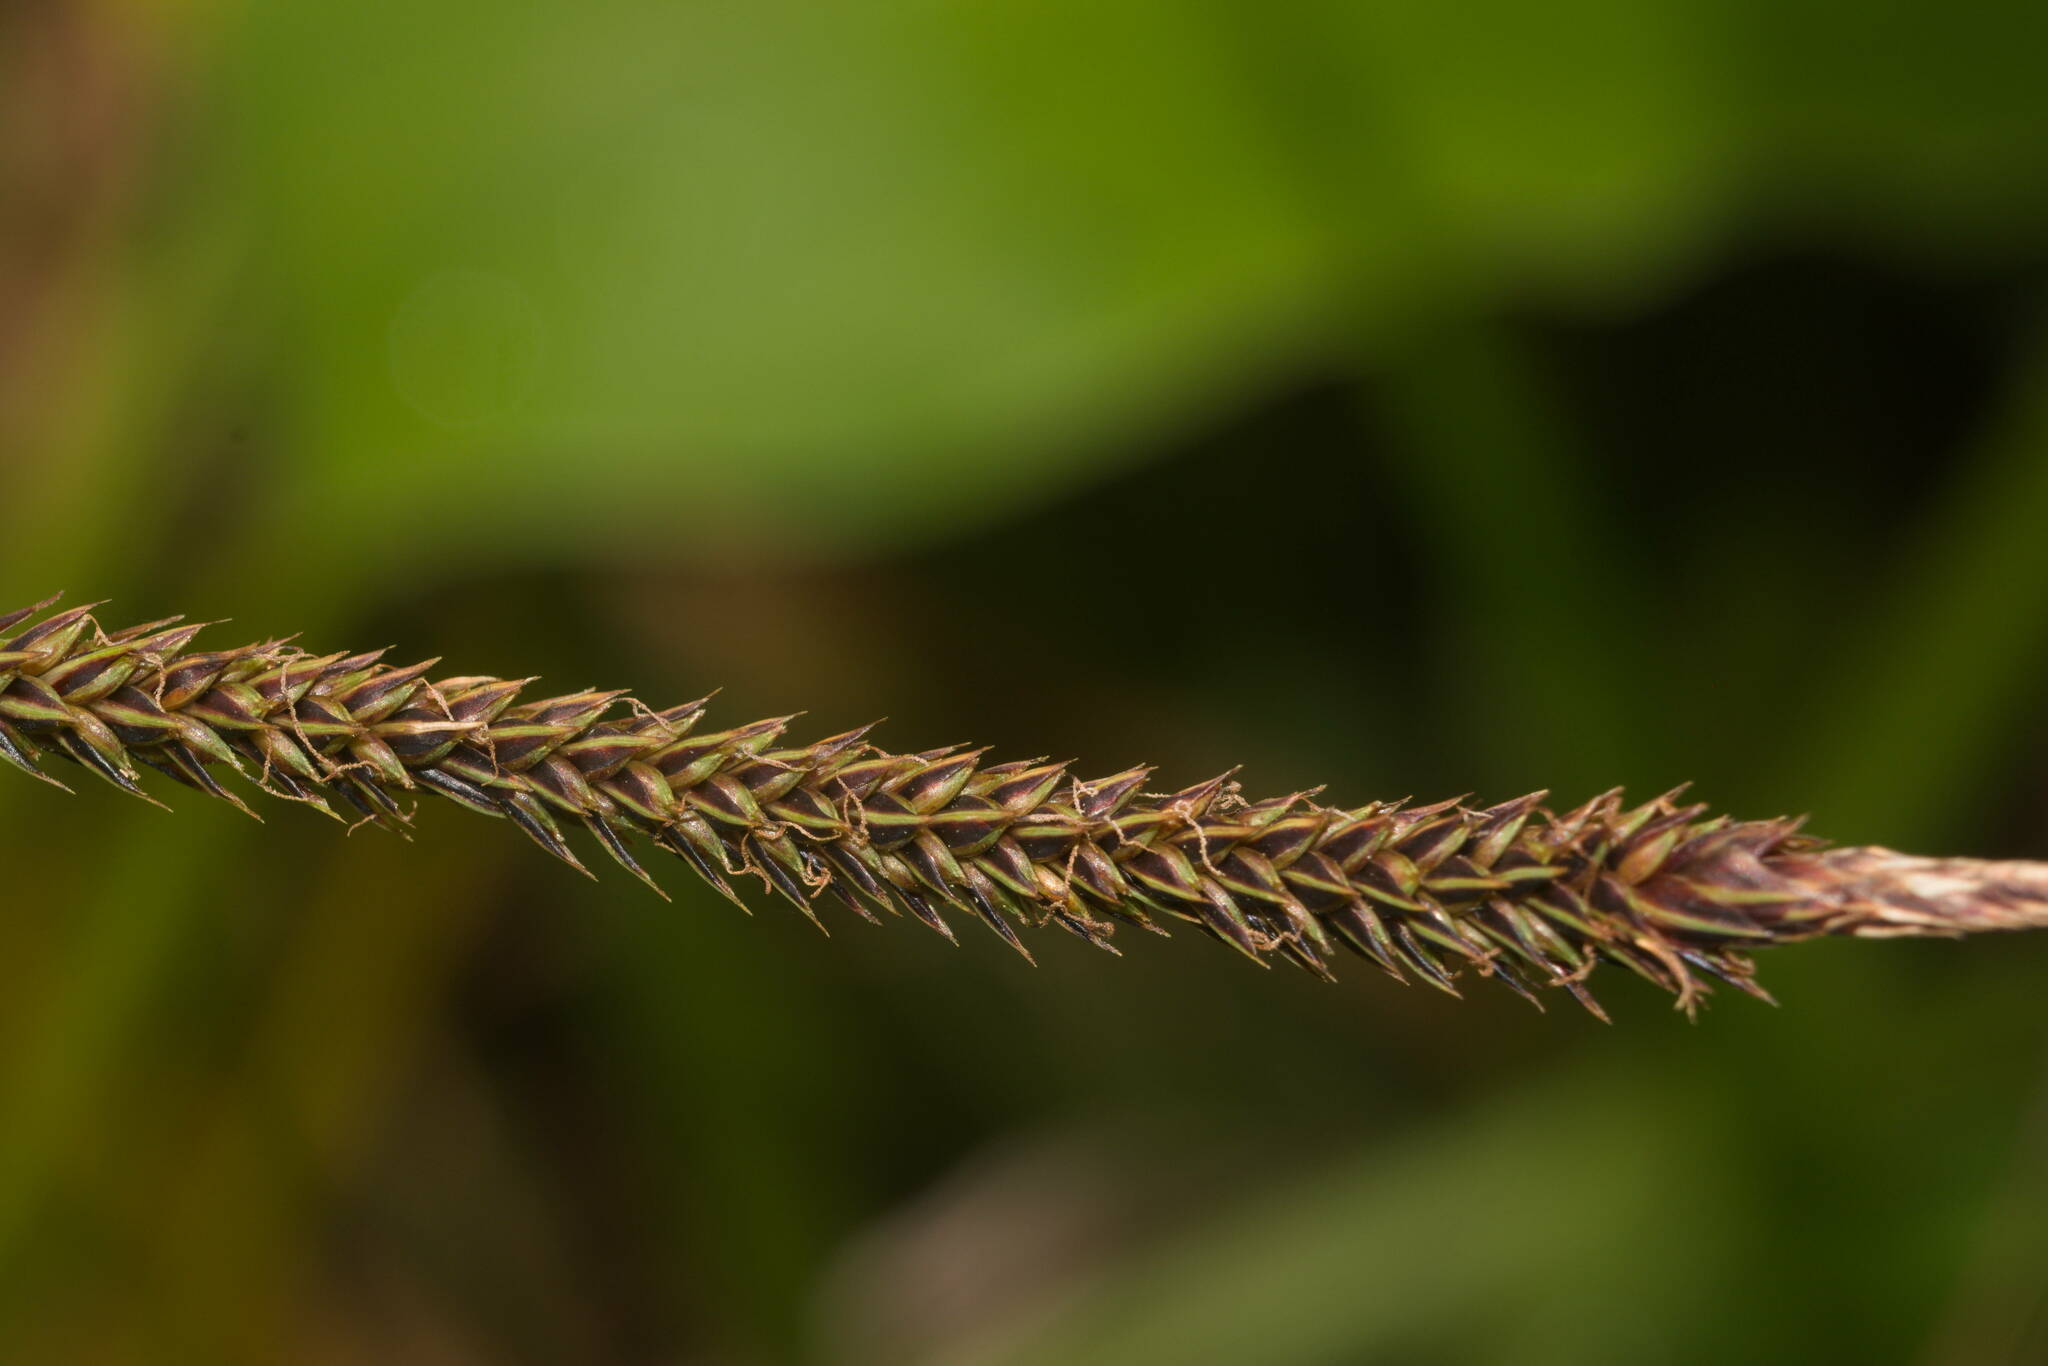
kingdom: Plantae
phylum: Tracheophyta
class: Liliopsida
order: Poales
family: Cyperaceae
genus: Carex
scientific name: Carex alligata
